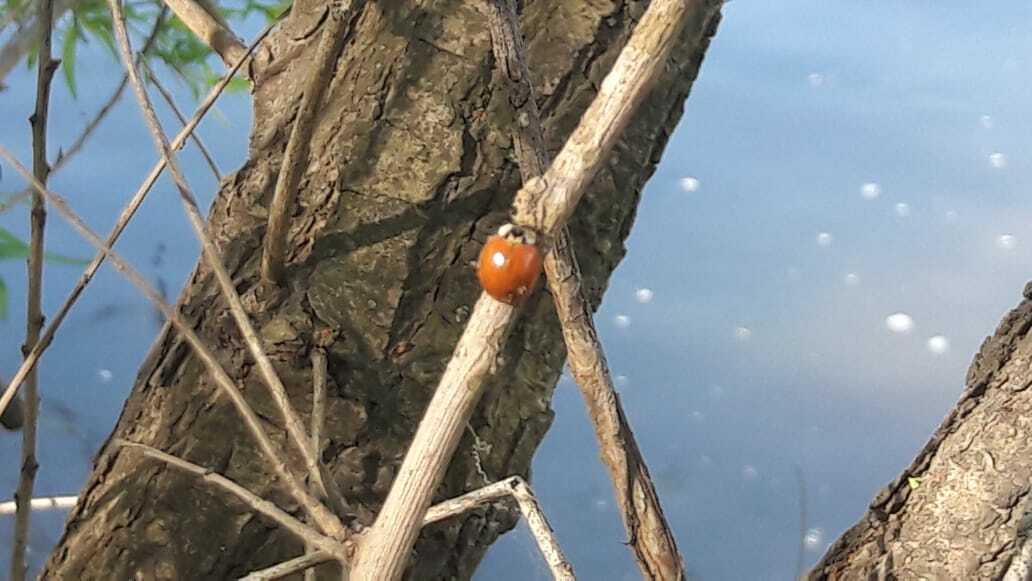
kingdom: Animalia
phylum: Arthropoda
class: Insecta
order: Coleoptera
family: Coccinellidae
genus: Harmonia
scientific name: Harmonia axyridis
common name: Harlequin ladybird
